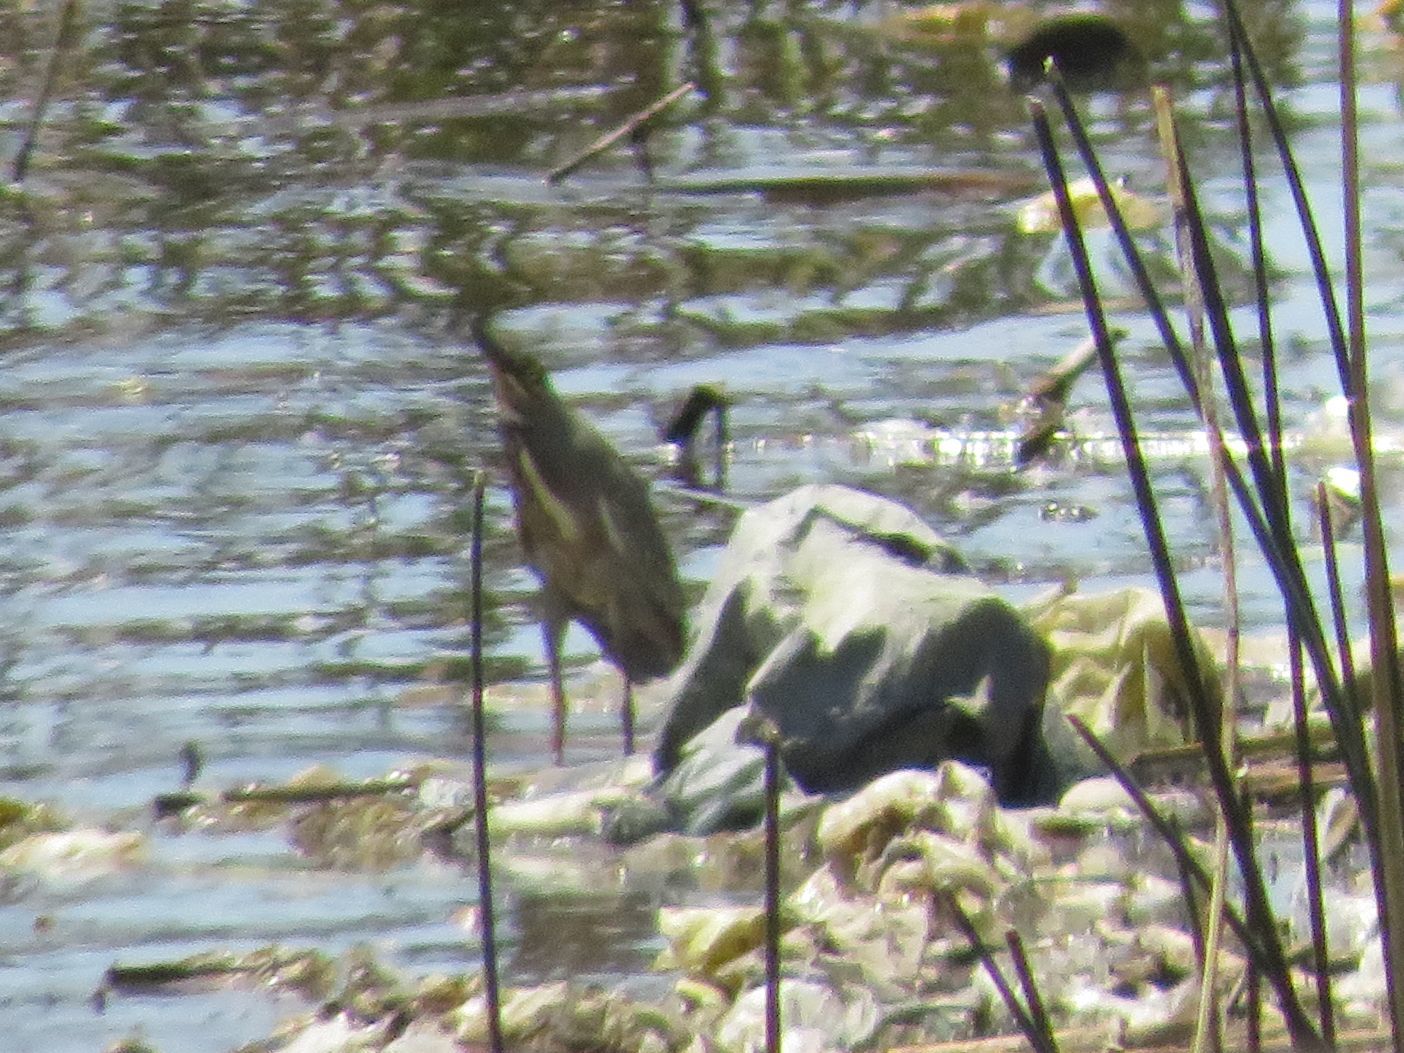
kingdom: Animalia
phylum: Chordata
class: Aves
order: Pelecaniformes
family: Ardeidae
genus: Butorides
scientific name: Butorides striata
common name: Striated heron
